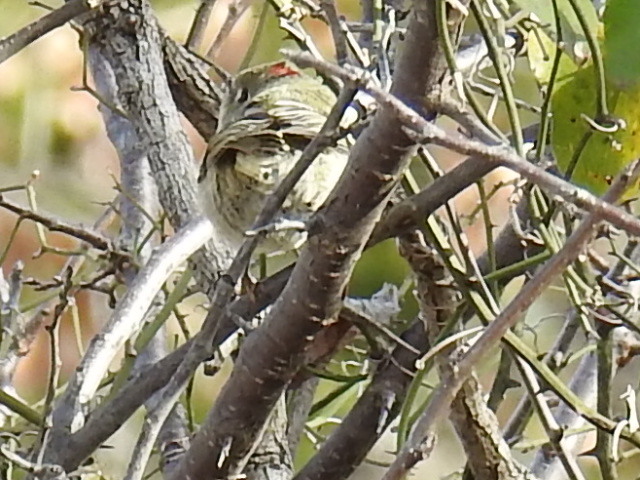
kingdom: Animalia
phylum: Chordata
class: Aves
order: Passeriformes
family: Regulidae
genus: Regulus
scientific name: Regulus calendula
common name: Ruby-crowned kinglet
